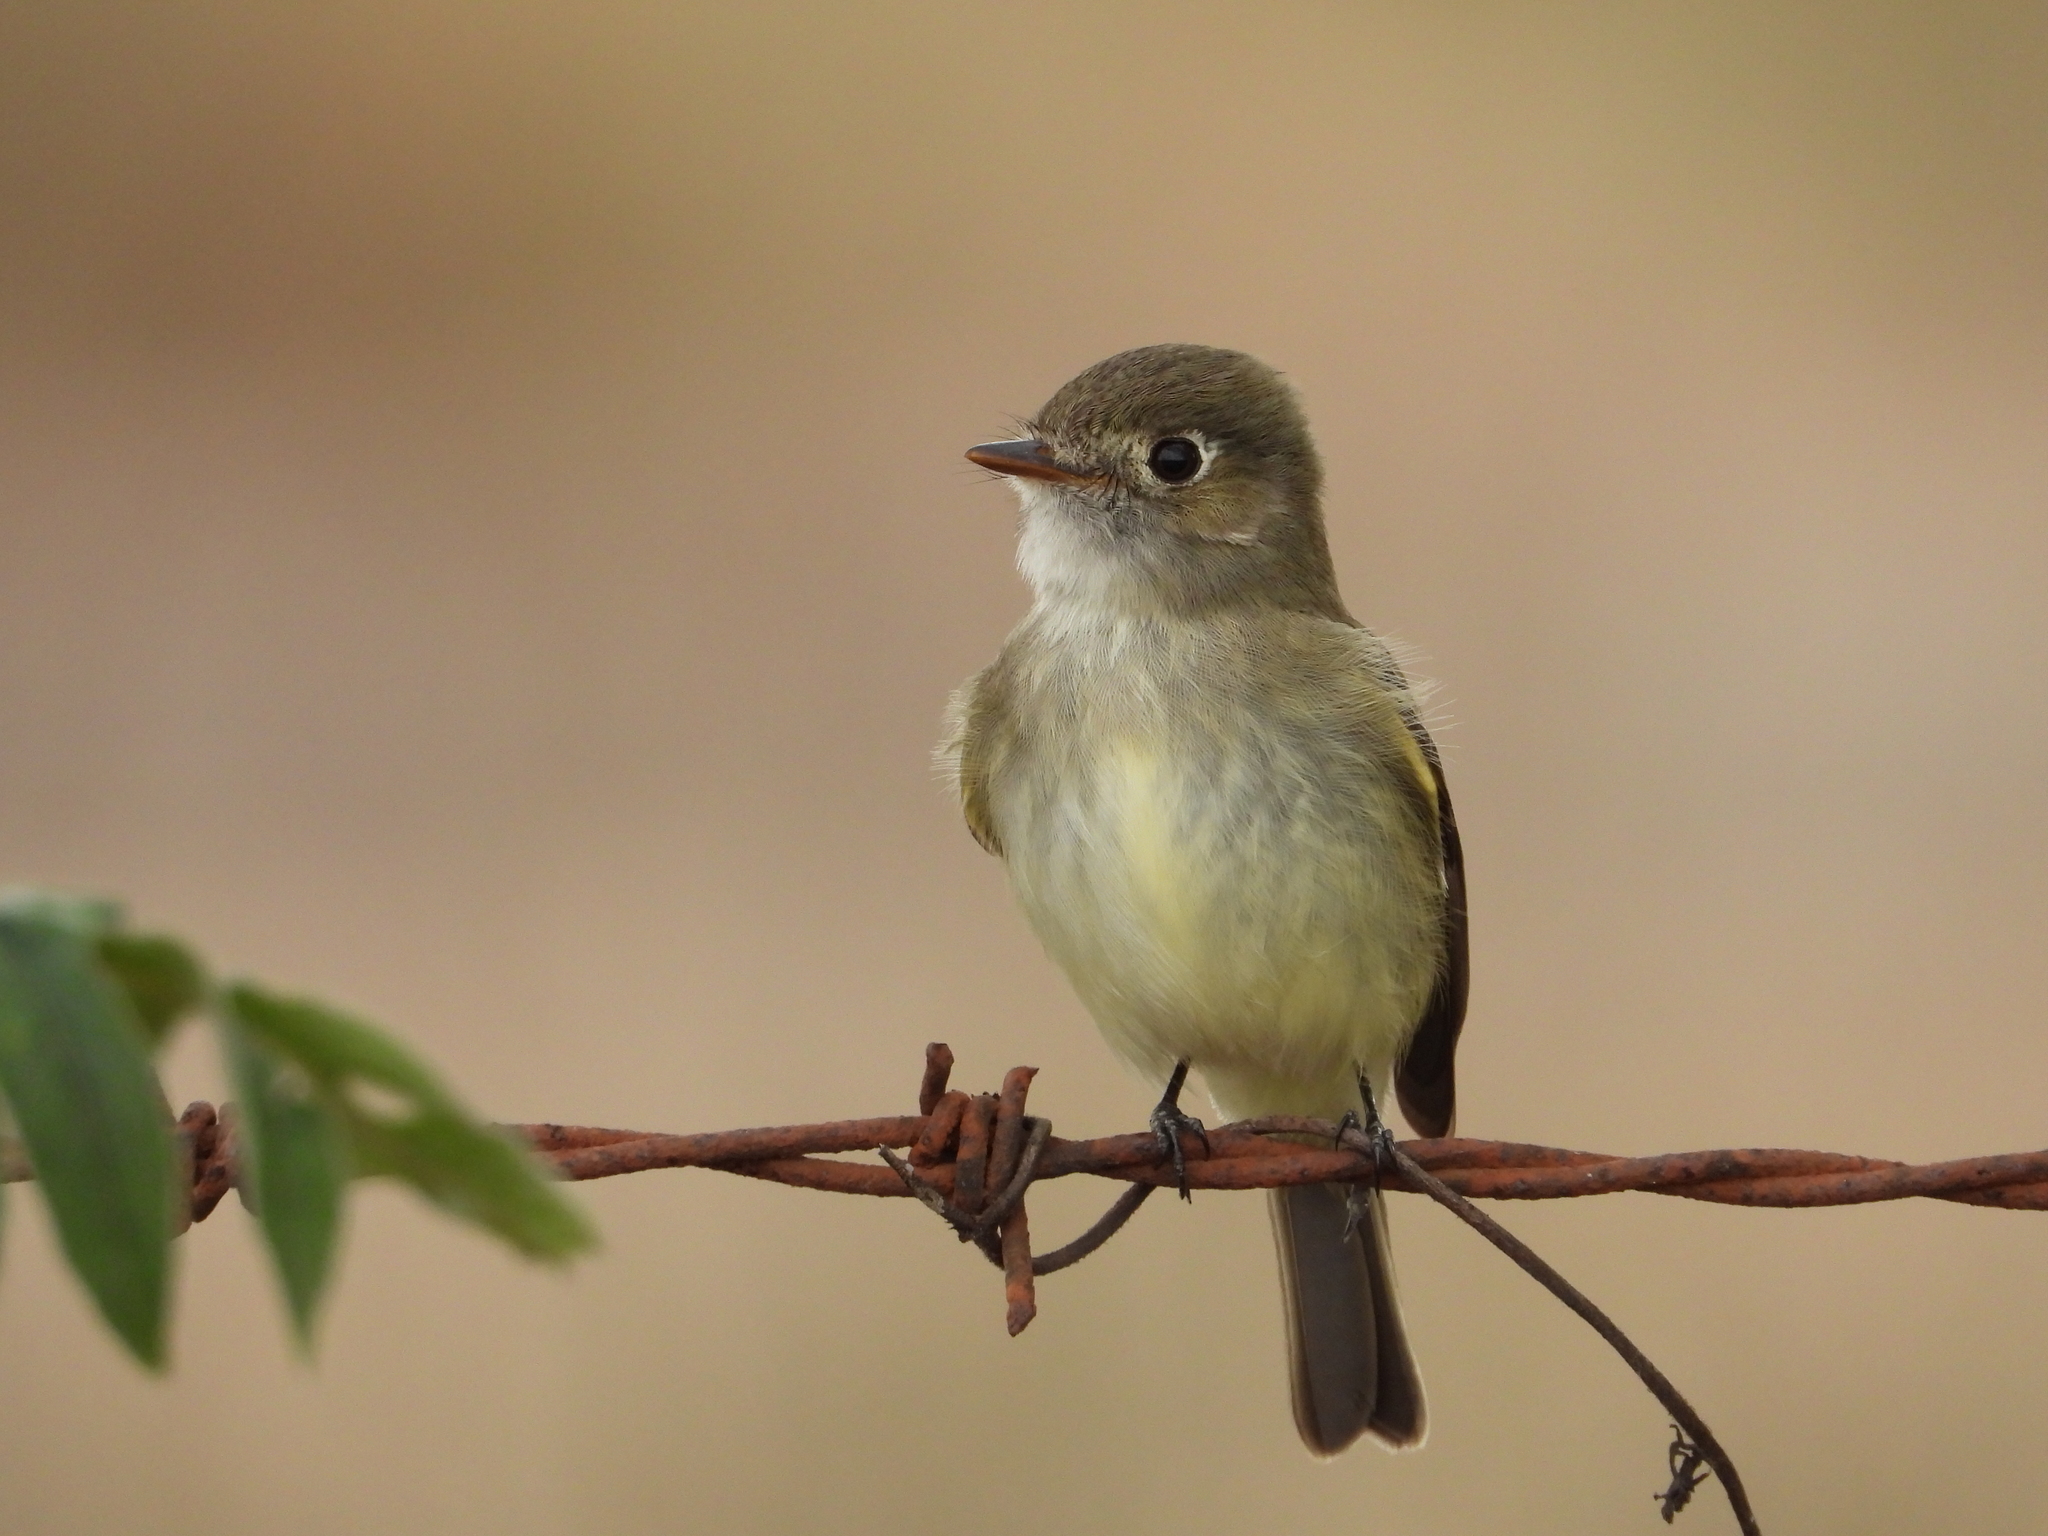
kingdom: Animalia
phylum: Chordata
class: Aves
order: Passeriformes
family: Tyrannidae
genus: Empidonax
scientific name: Empidonax minimus
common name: Least flycatcher
